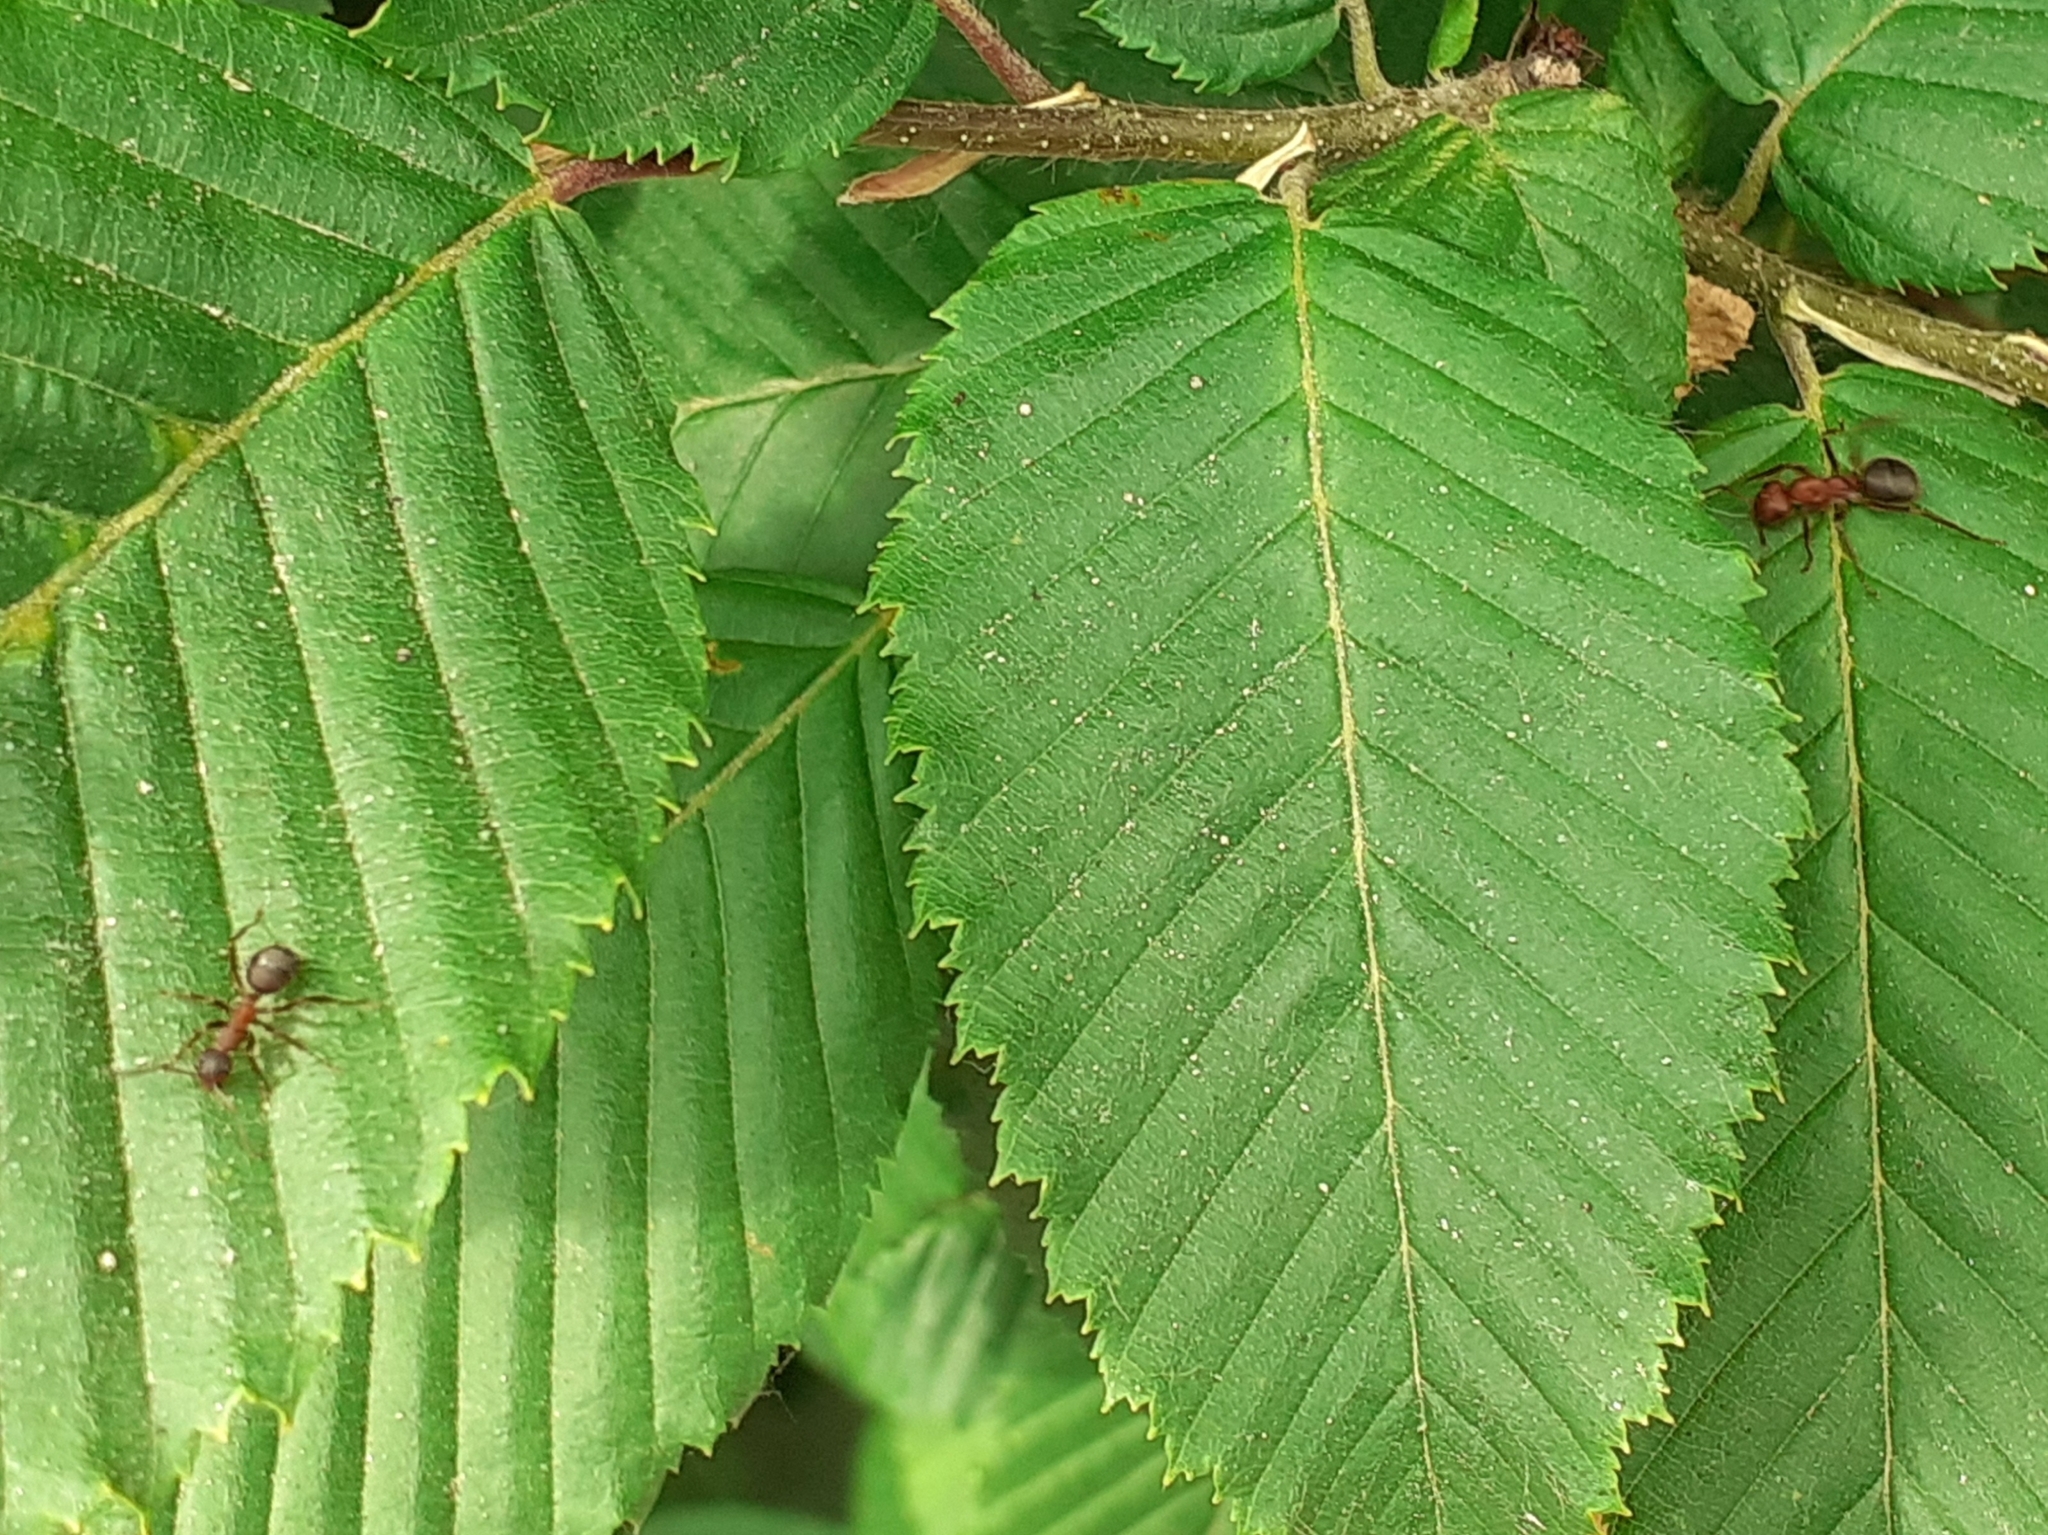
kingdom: Animalia
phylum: Arthropoda
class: Insecta
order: Hymenoptera
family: Formicidae
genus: Formica
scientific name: Formica truncorum
